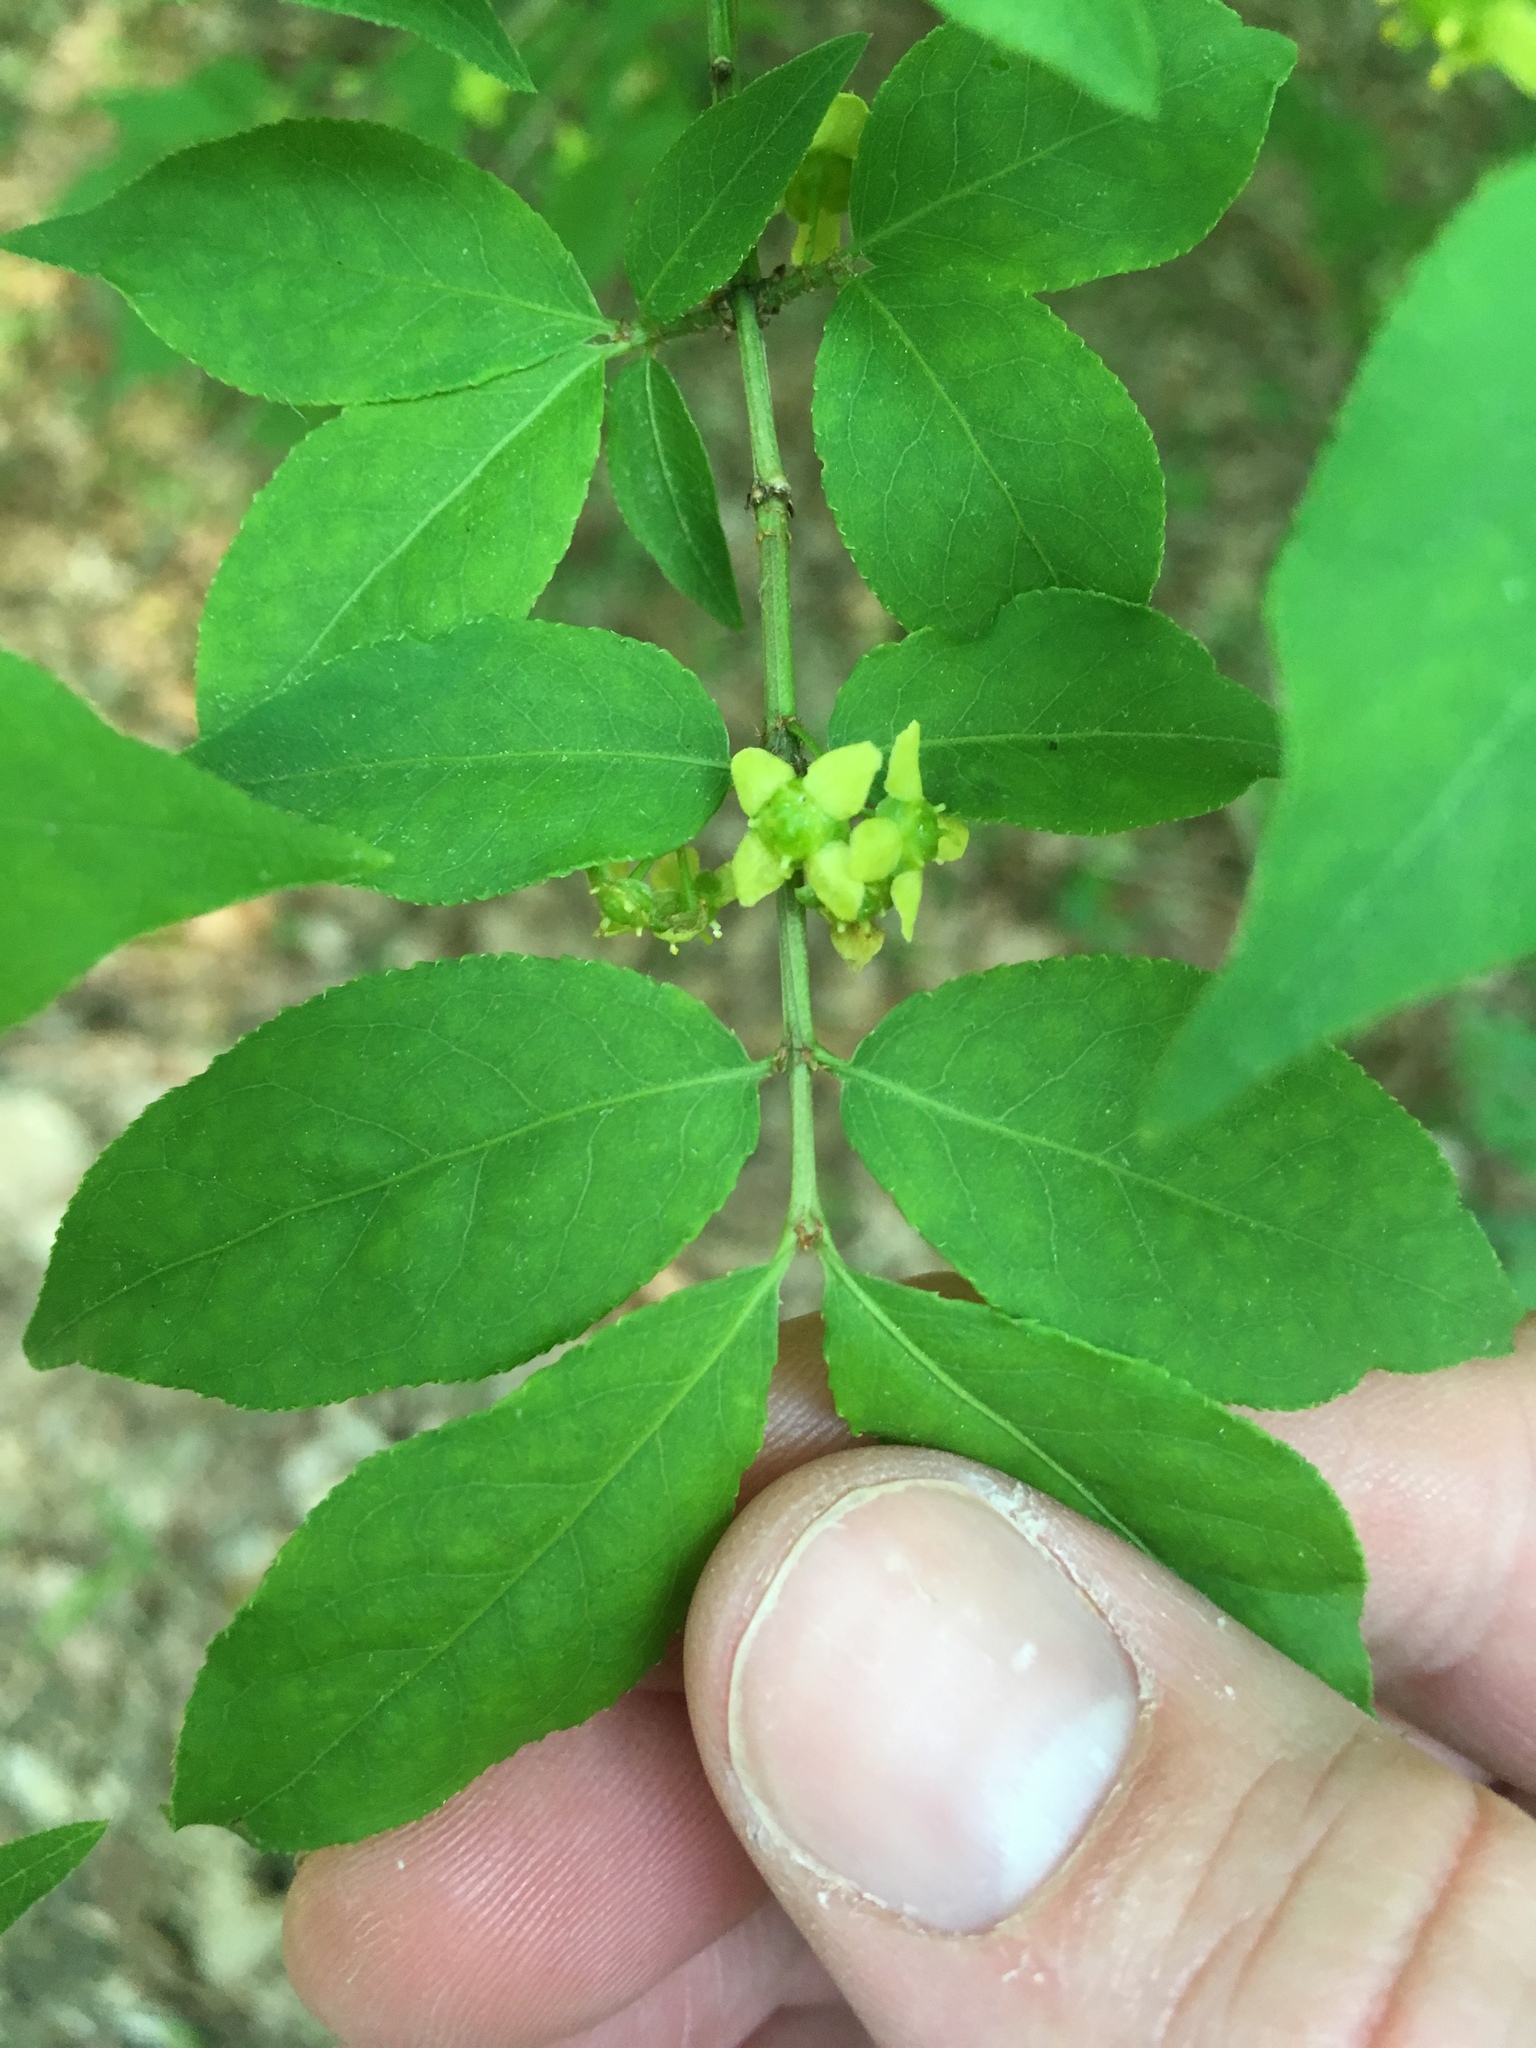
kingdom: Plantae
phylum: Tracheophyta
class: Magnoliopsida
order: Celastrales
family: Celastraceae
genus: Euonymus
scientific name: Euonymus alatus
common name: Winged euonymus
